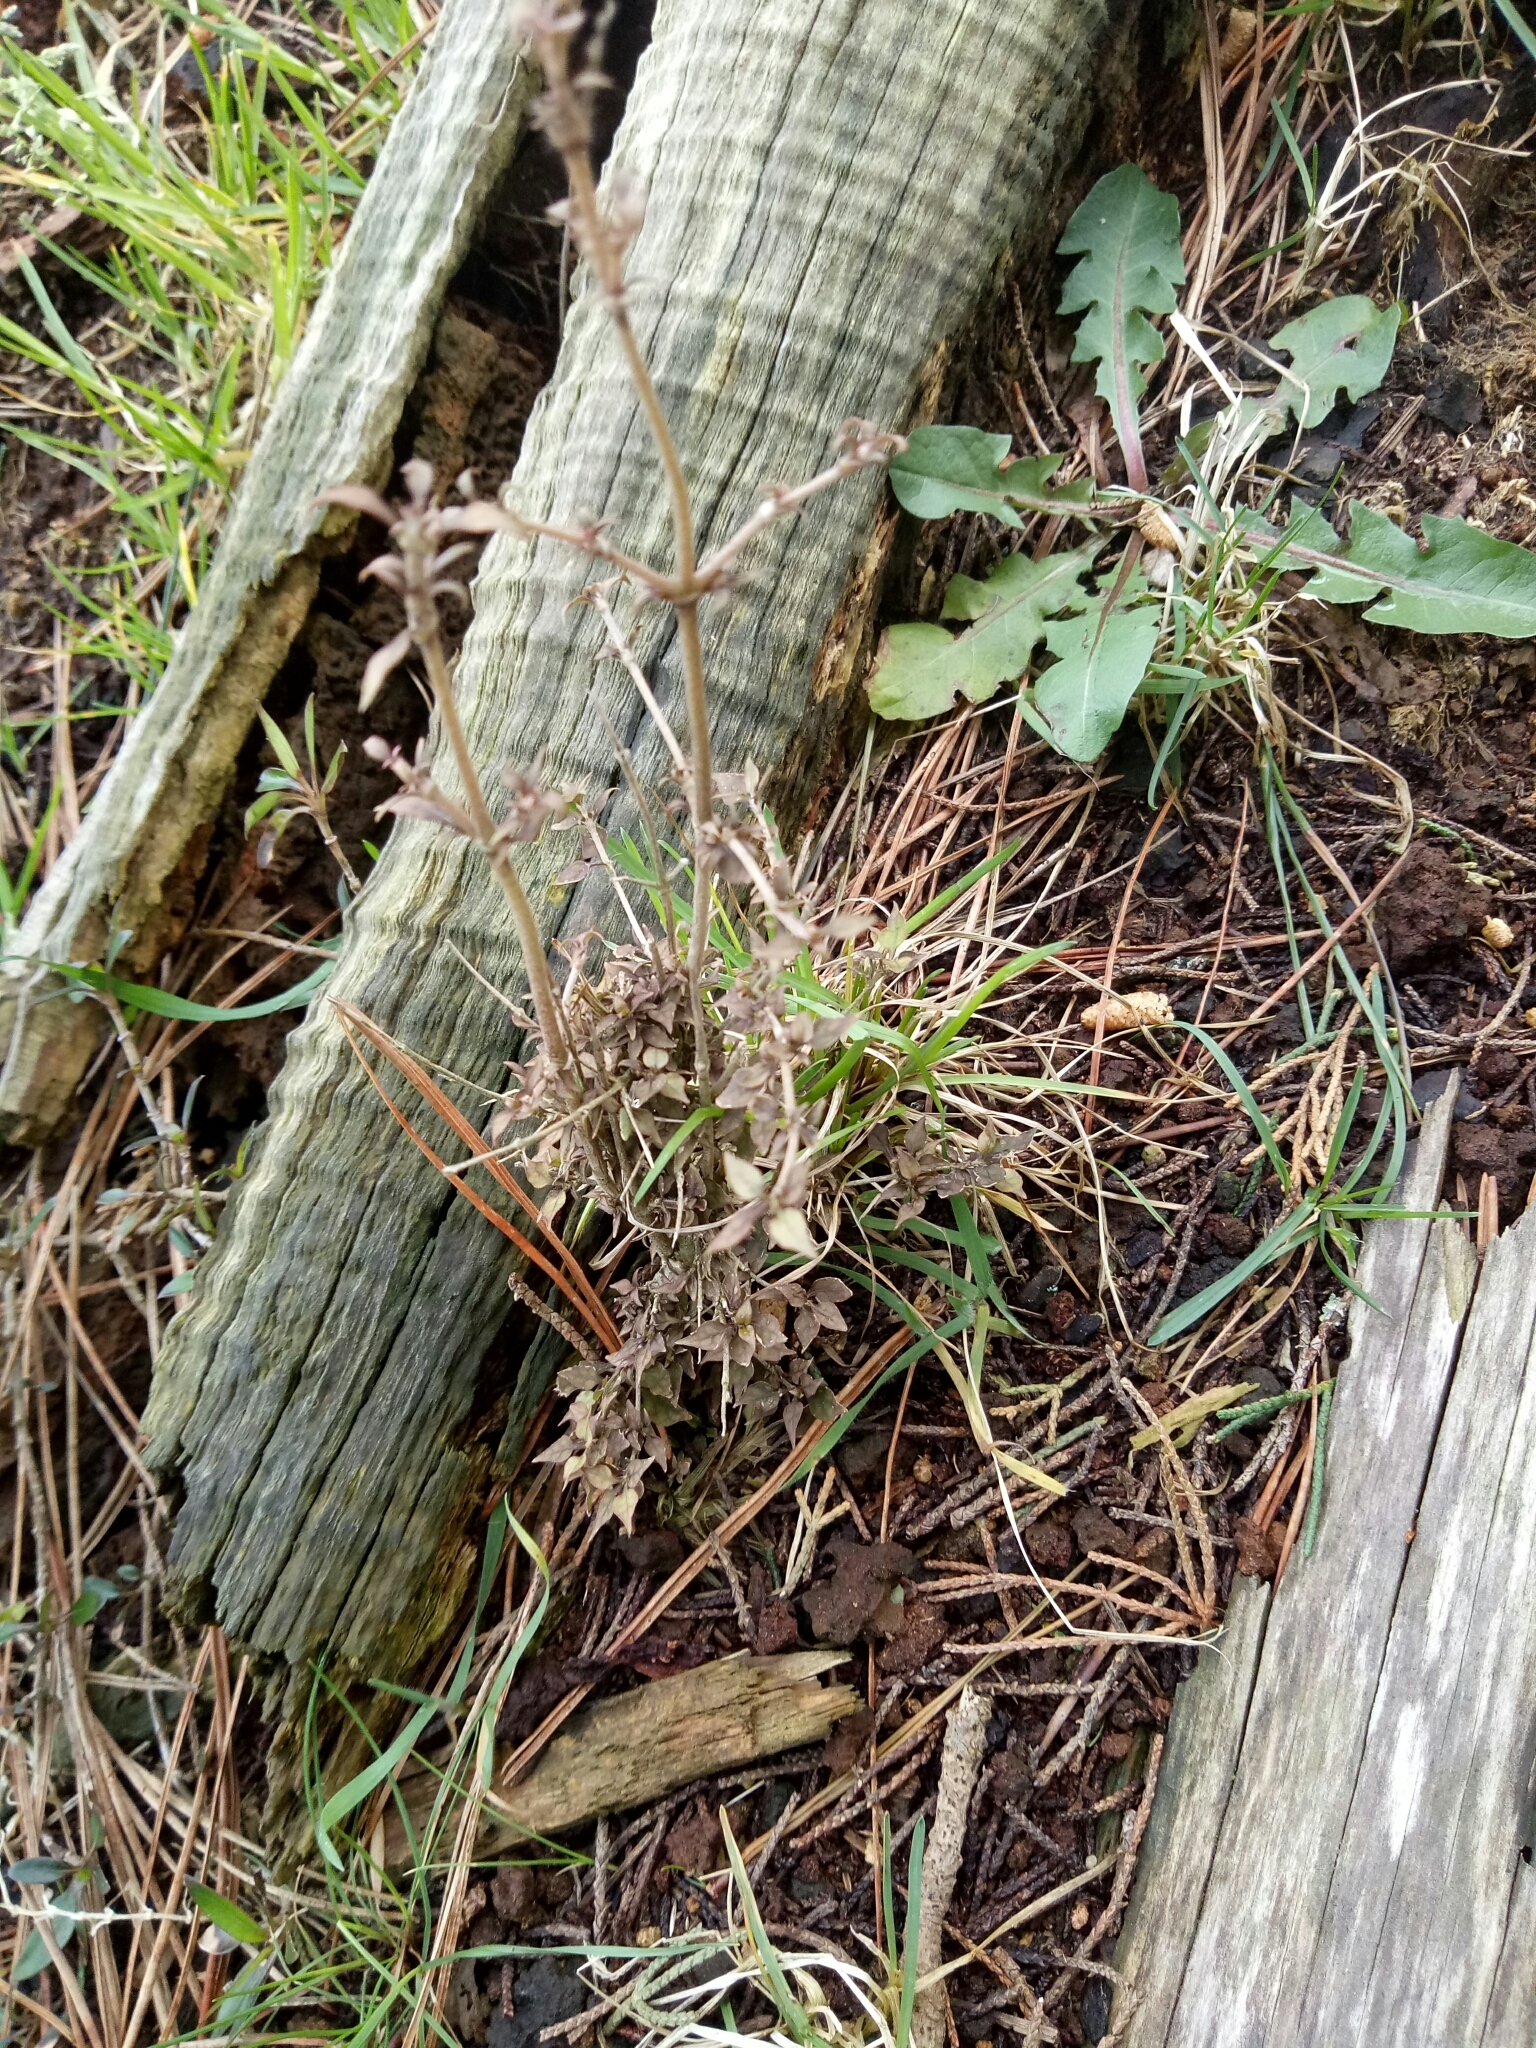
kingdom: Plantae
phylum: Tracheophyta
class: Magnoliopsida
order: Gentianales
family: Rubiaceae
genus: Coprosma
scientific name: Coprosma areolata
